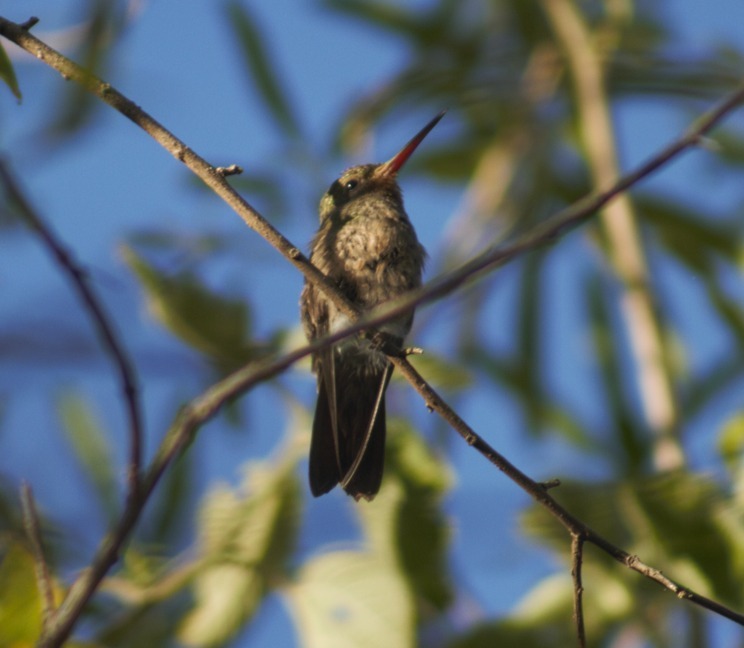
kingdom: Animalia
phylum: Chordata
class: Aves
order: Apodiformes
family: Trochilidae
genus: Hylocharis
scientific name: Hylocharis chrysura
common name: Gilded sapphire
